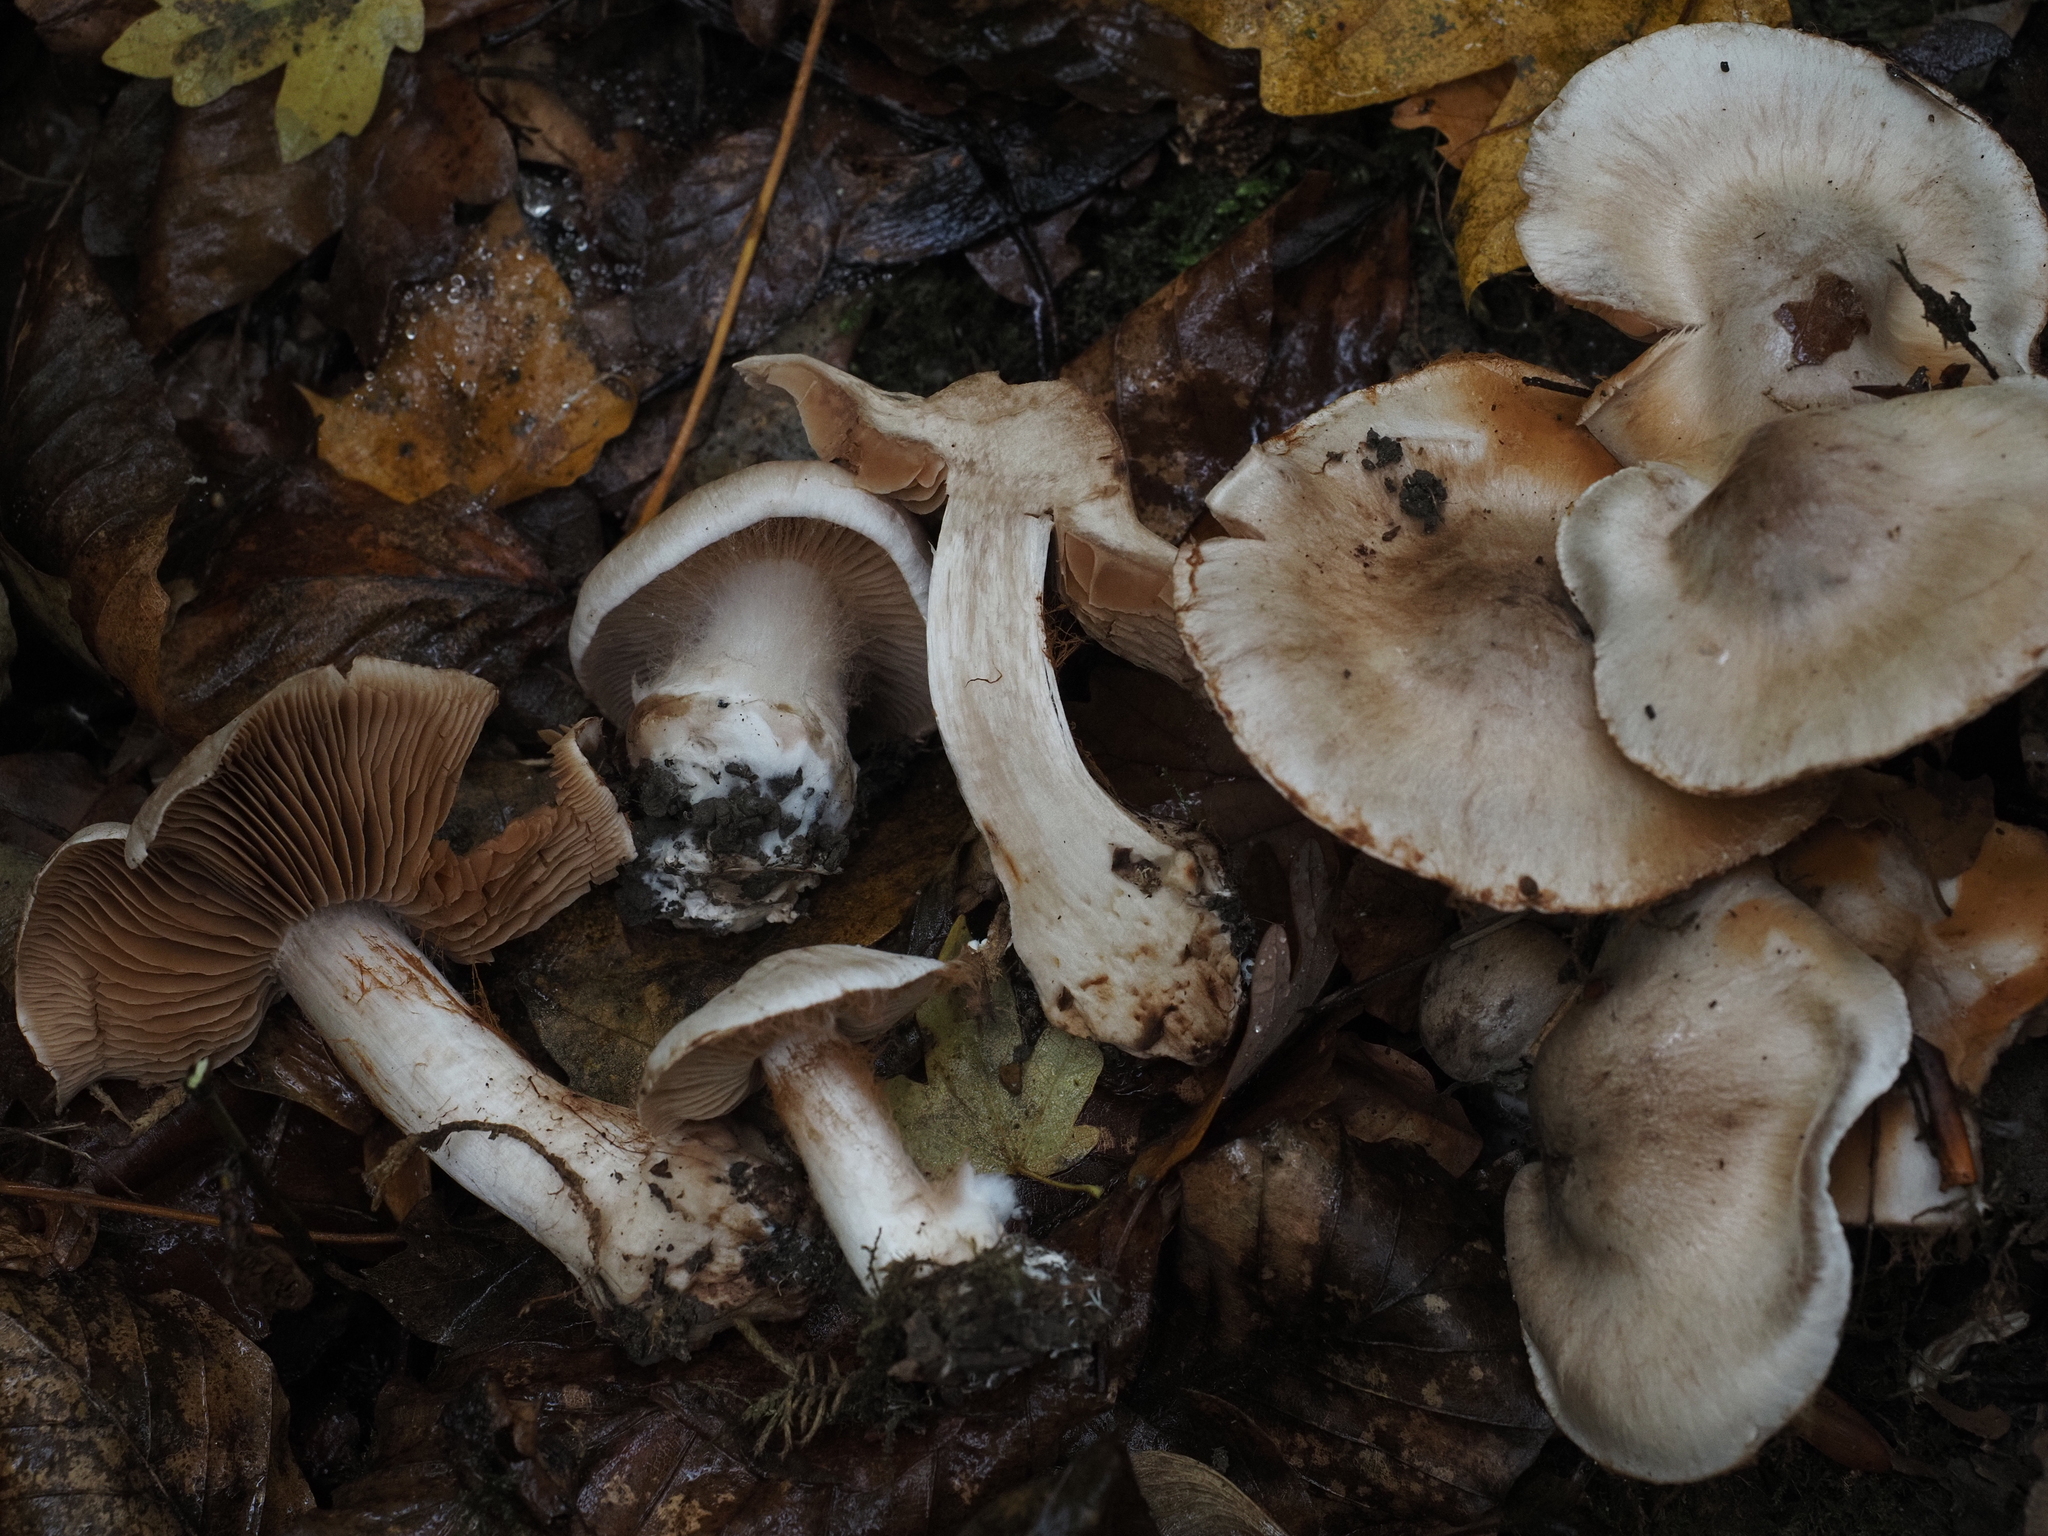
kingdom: Fungi
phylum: Basidiomycota
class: Agaricomycetes
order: Agaricales
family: Cortinariaceae
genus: Cortinarius
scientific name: Cortinarius chevassutii
